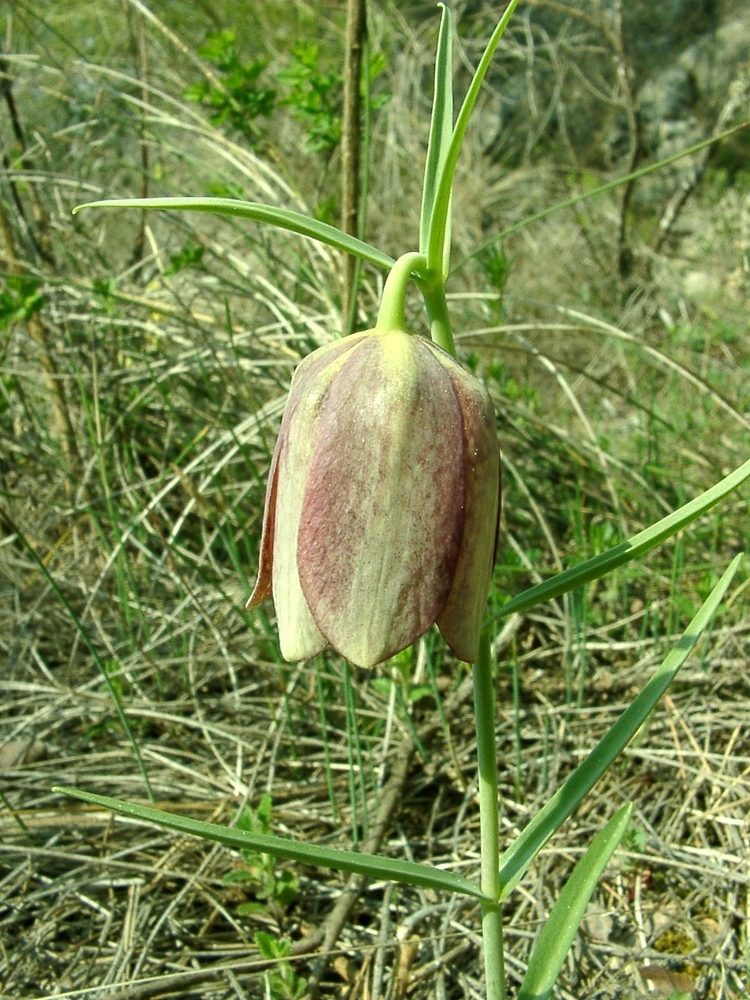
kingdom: Plantae
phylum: Tracheophyta
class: Liliopsida
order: Liliales
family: Liliaceae
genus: Fritillaria
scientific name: Fritillaria involucrata
